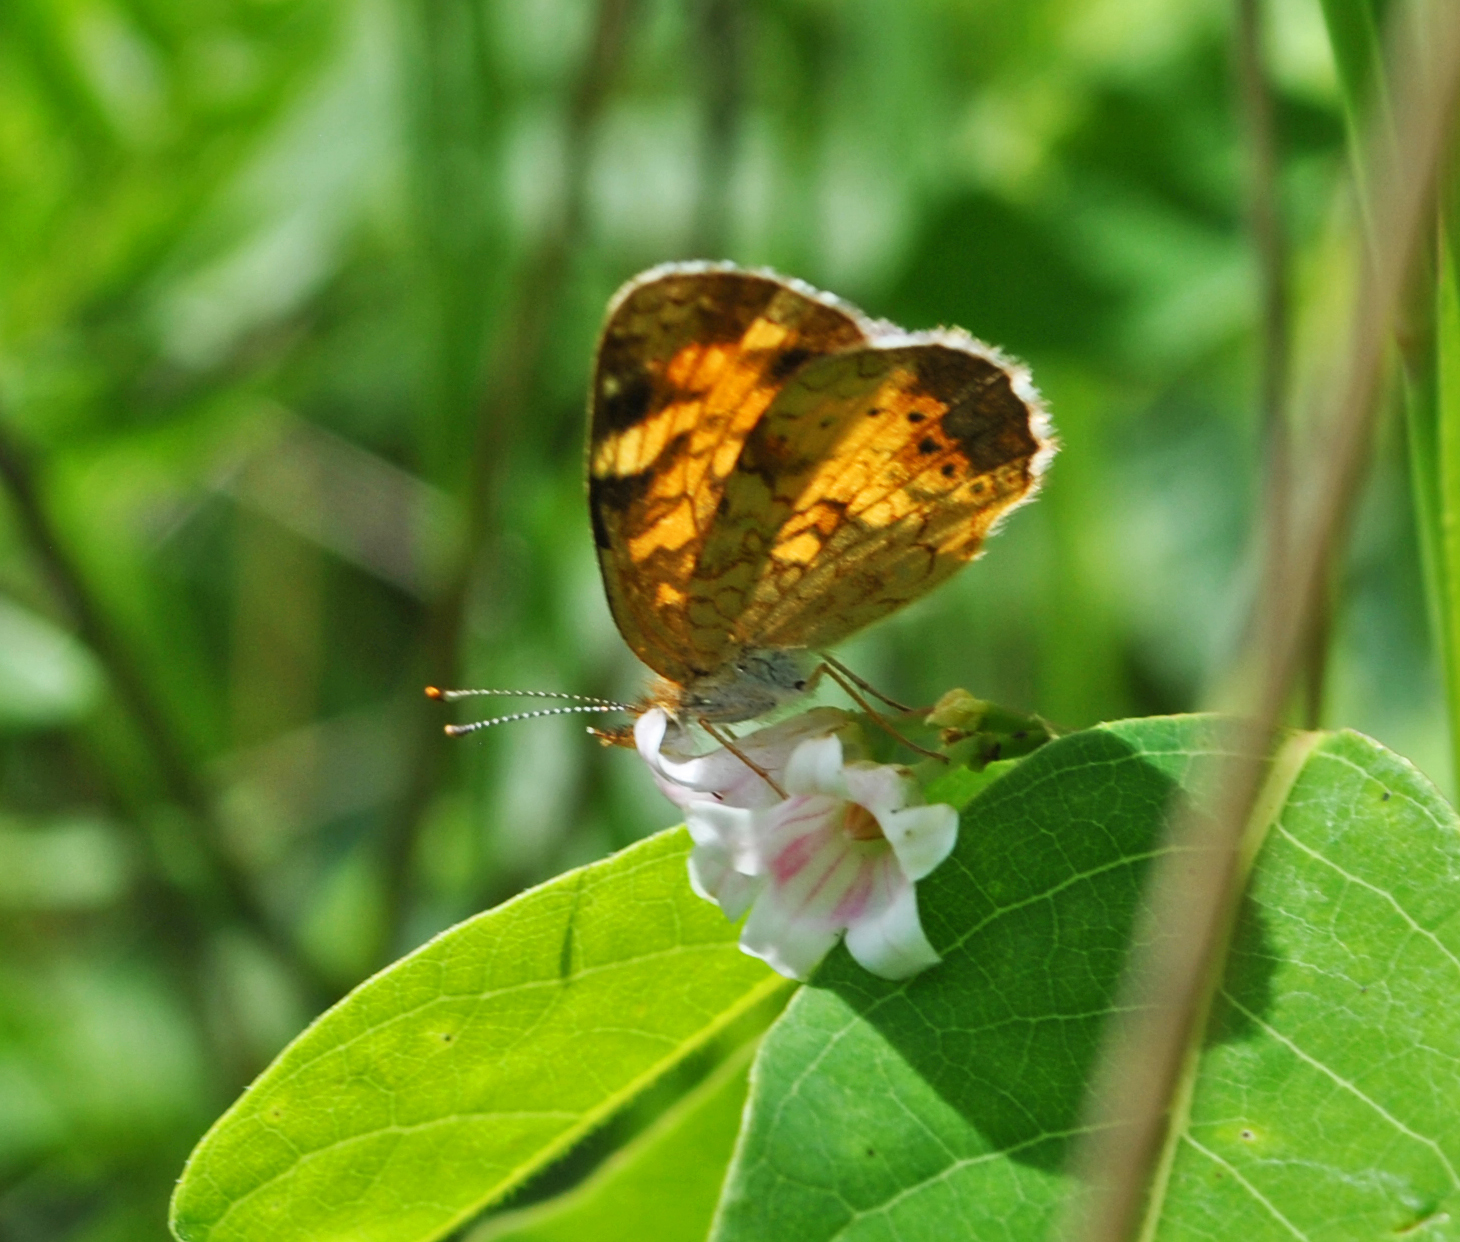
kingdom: Animalia
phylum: Arthropoda
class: Insecta
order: Lepidoptera
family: Nymphalidae
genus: Phyciodes
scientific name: Phyciodes tharos
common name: Pearl crescent
